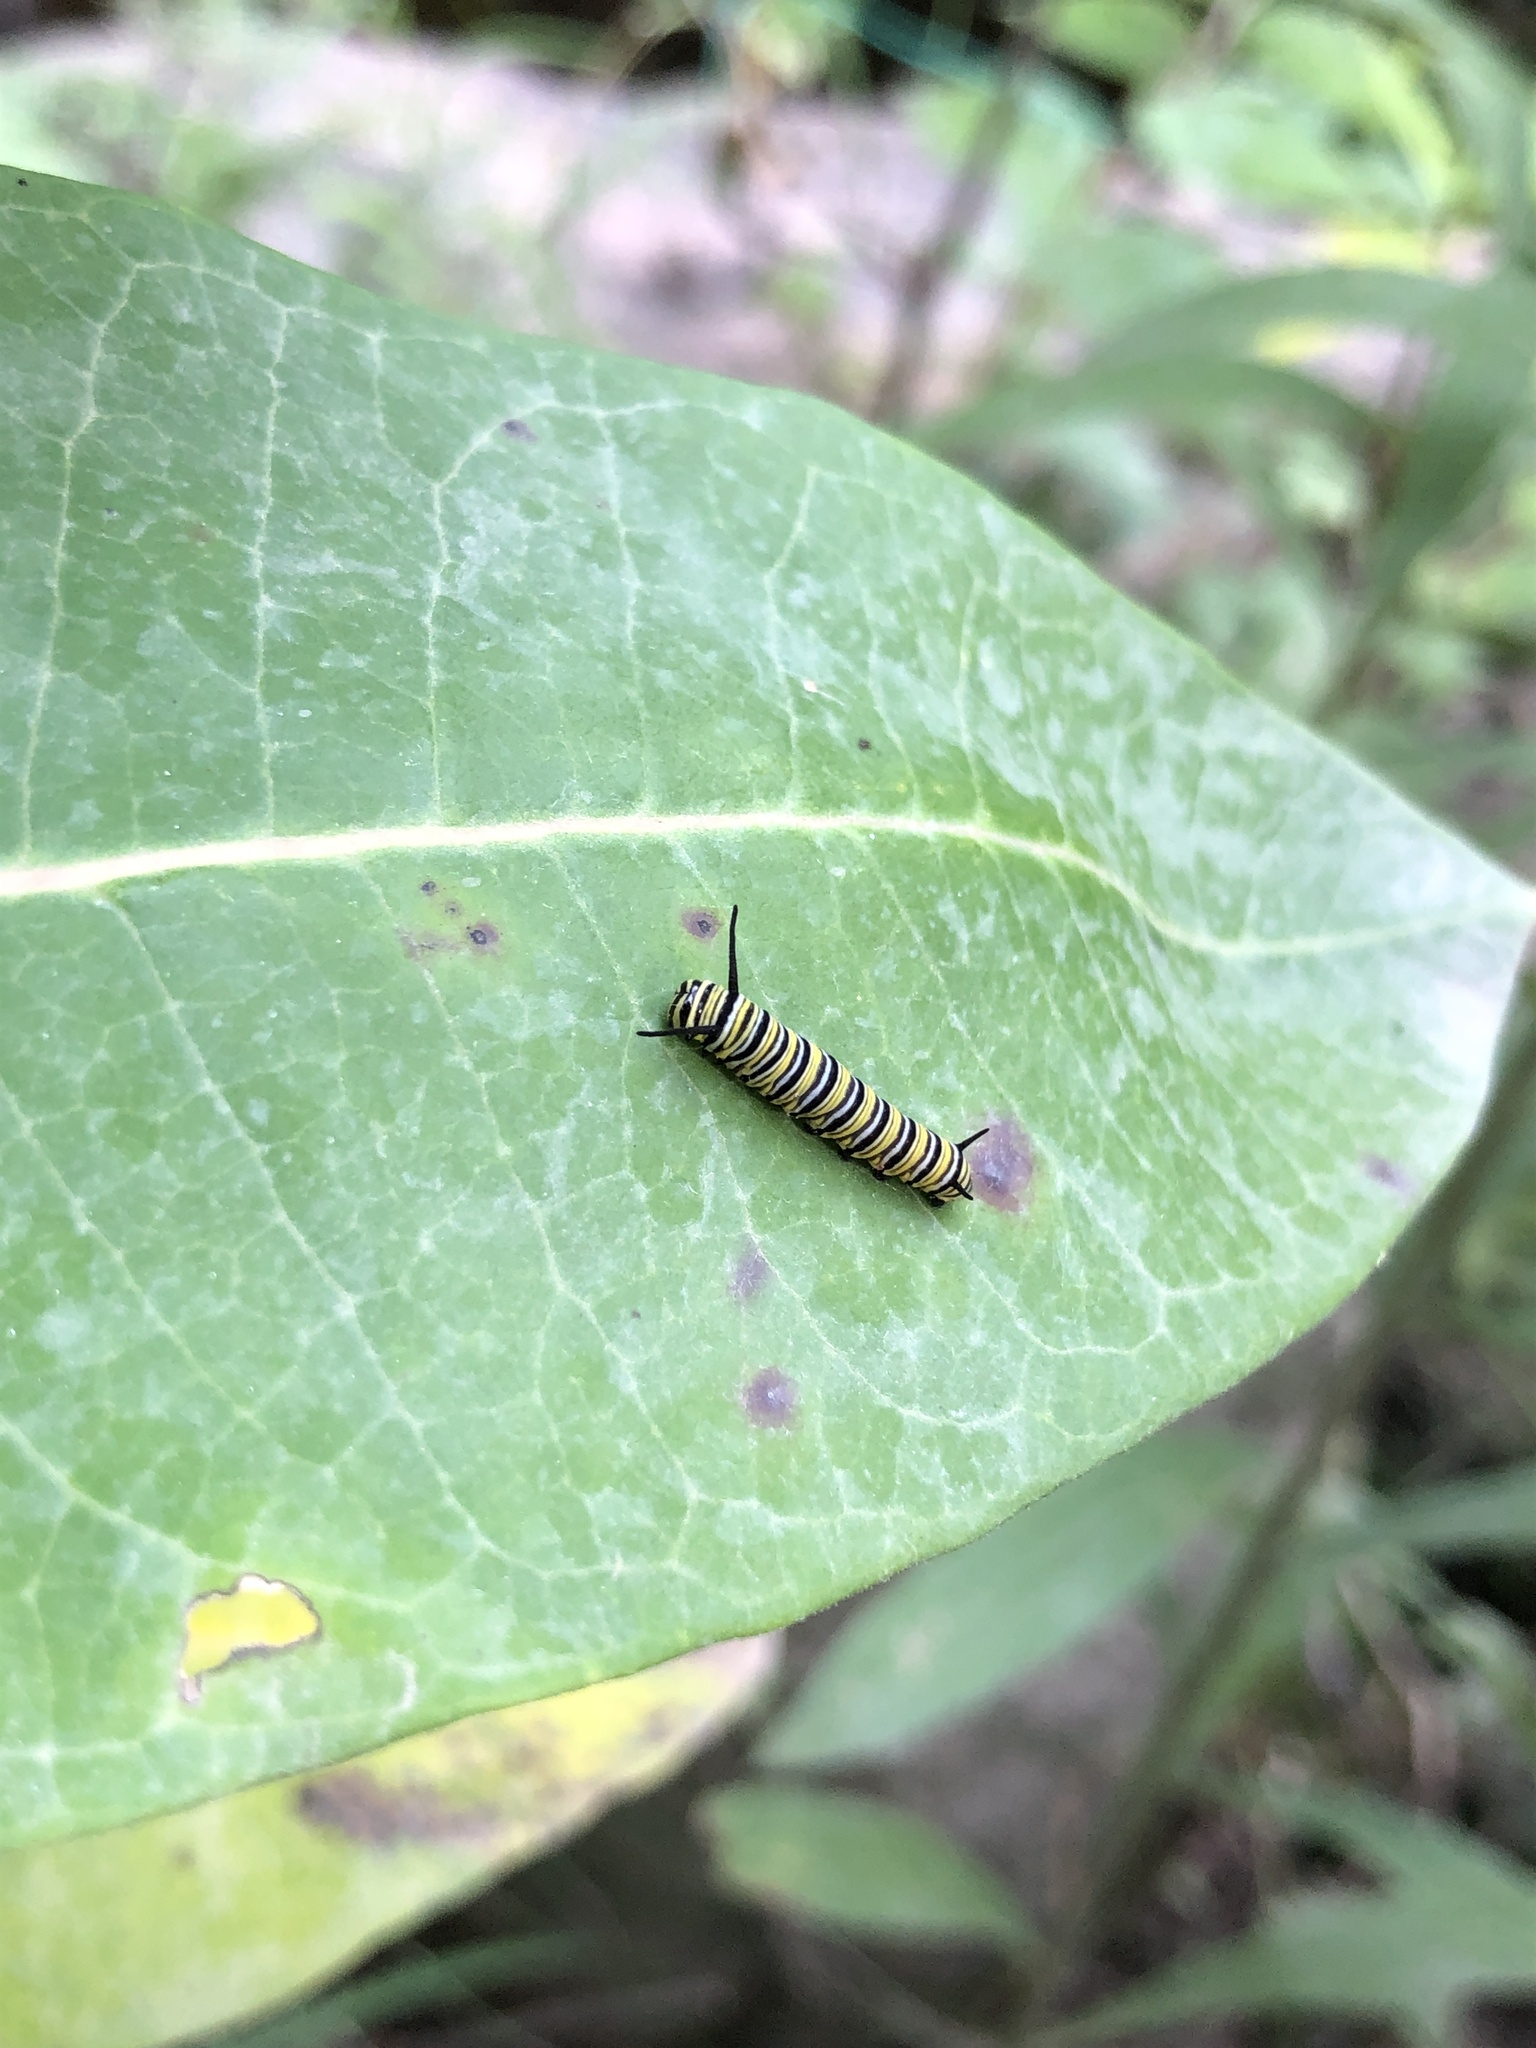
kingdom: Animalia
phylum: Arthropoda
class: Insecta
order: Lepidoptera
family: Nymphalidae
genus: Danaus
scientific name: Danaus plexippus
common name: Monarch
